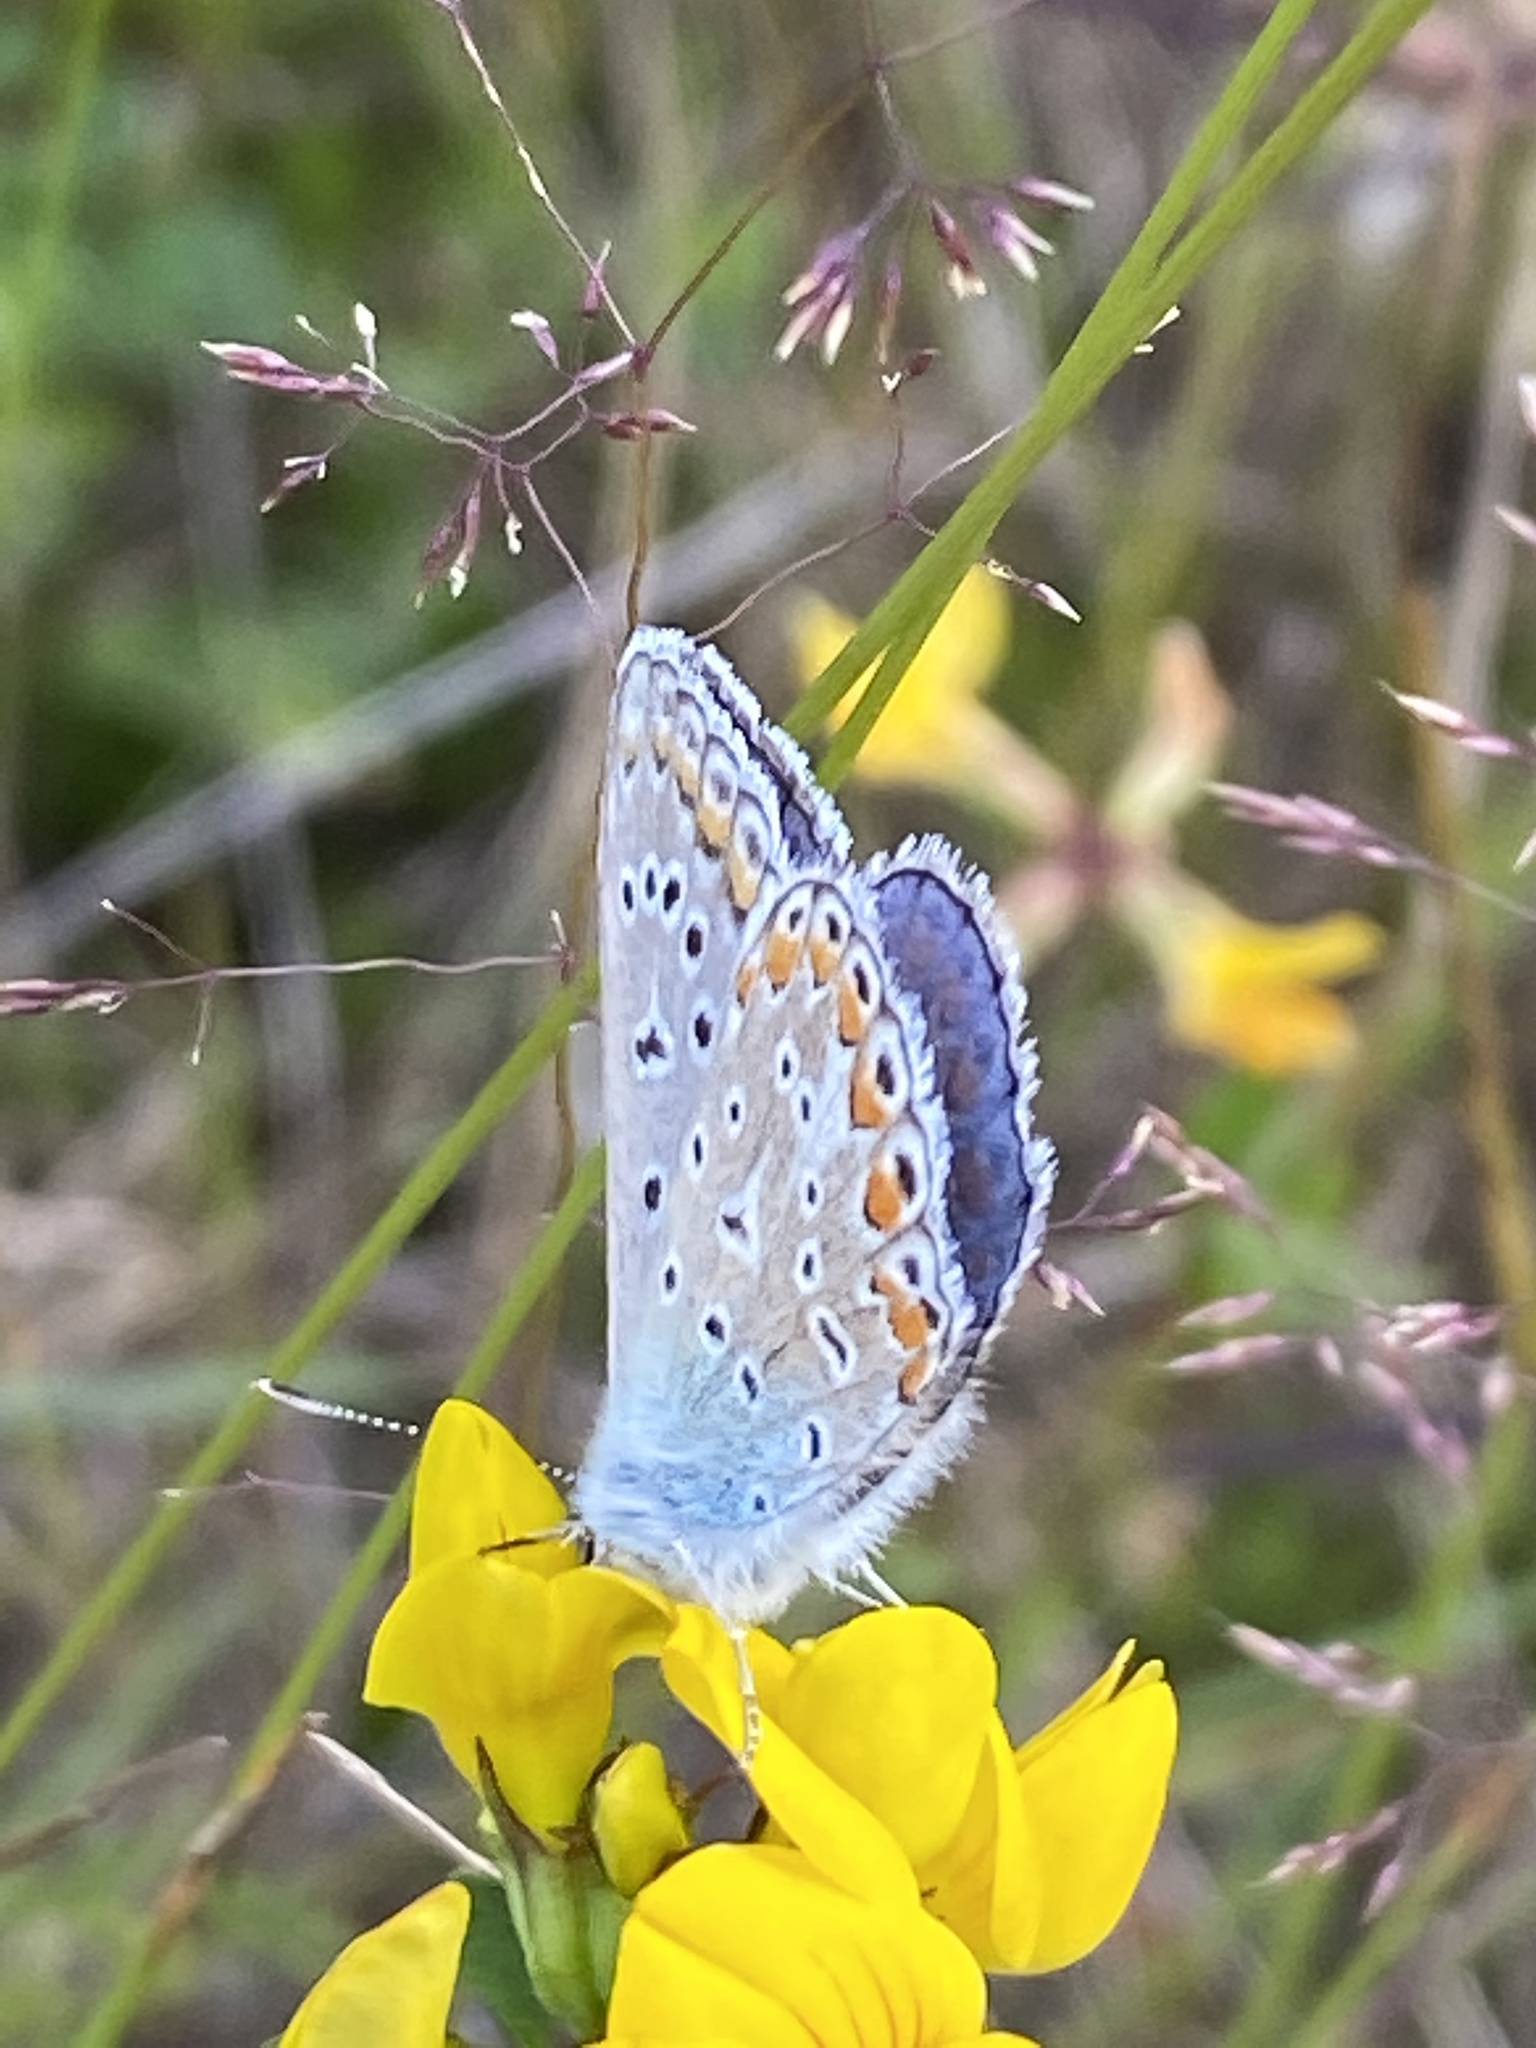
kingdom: Animalia
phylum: Arthropoda
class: Insecta
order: Lepidoptera
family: Lycaenidae
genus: Polyommatus
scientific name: Polyommatus icarus
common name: Common blue
